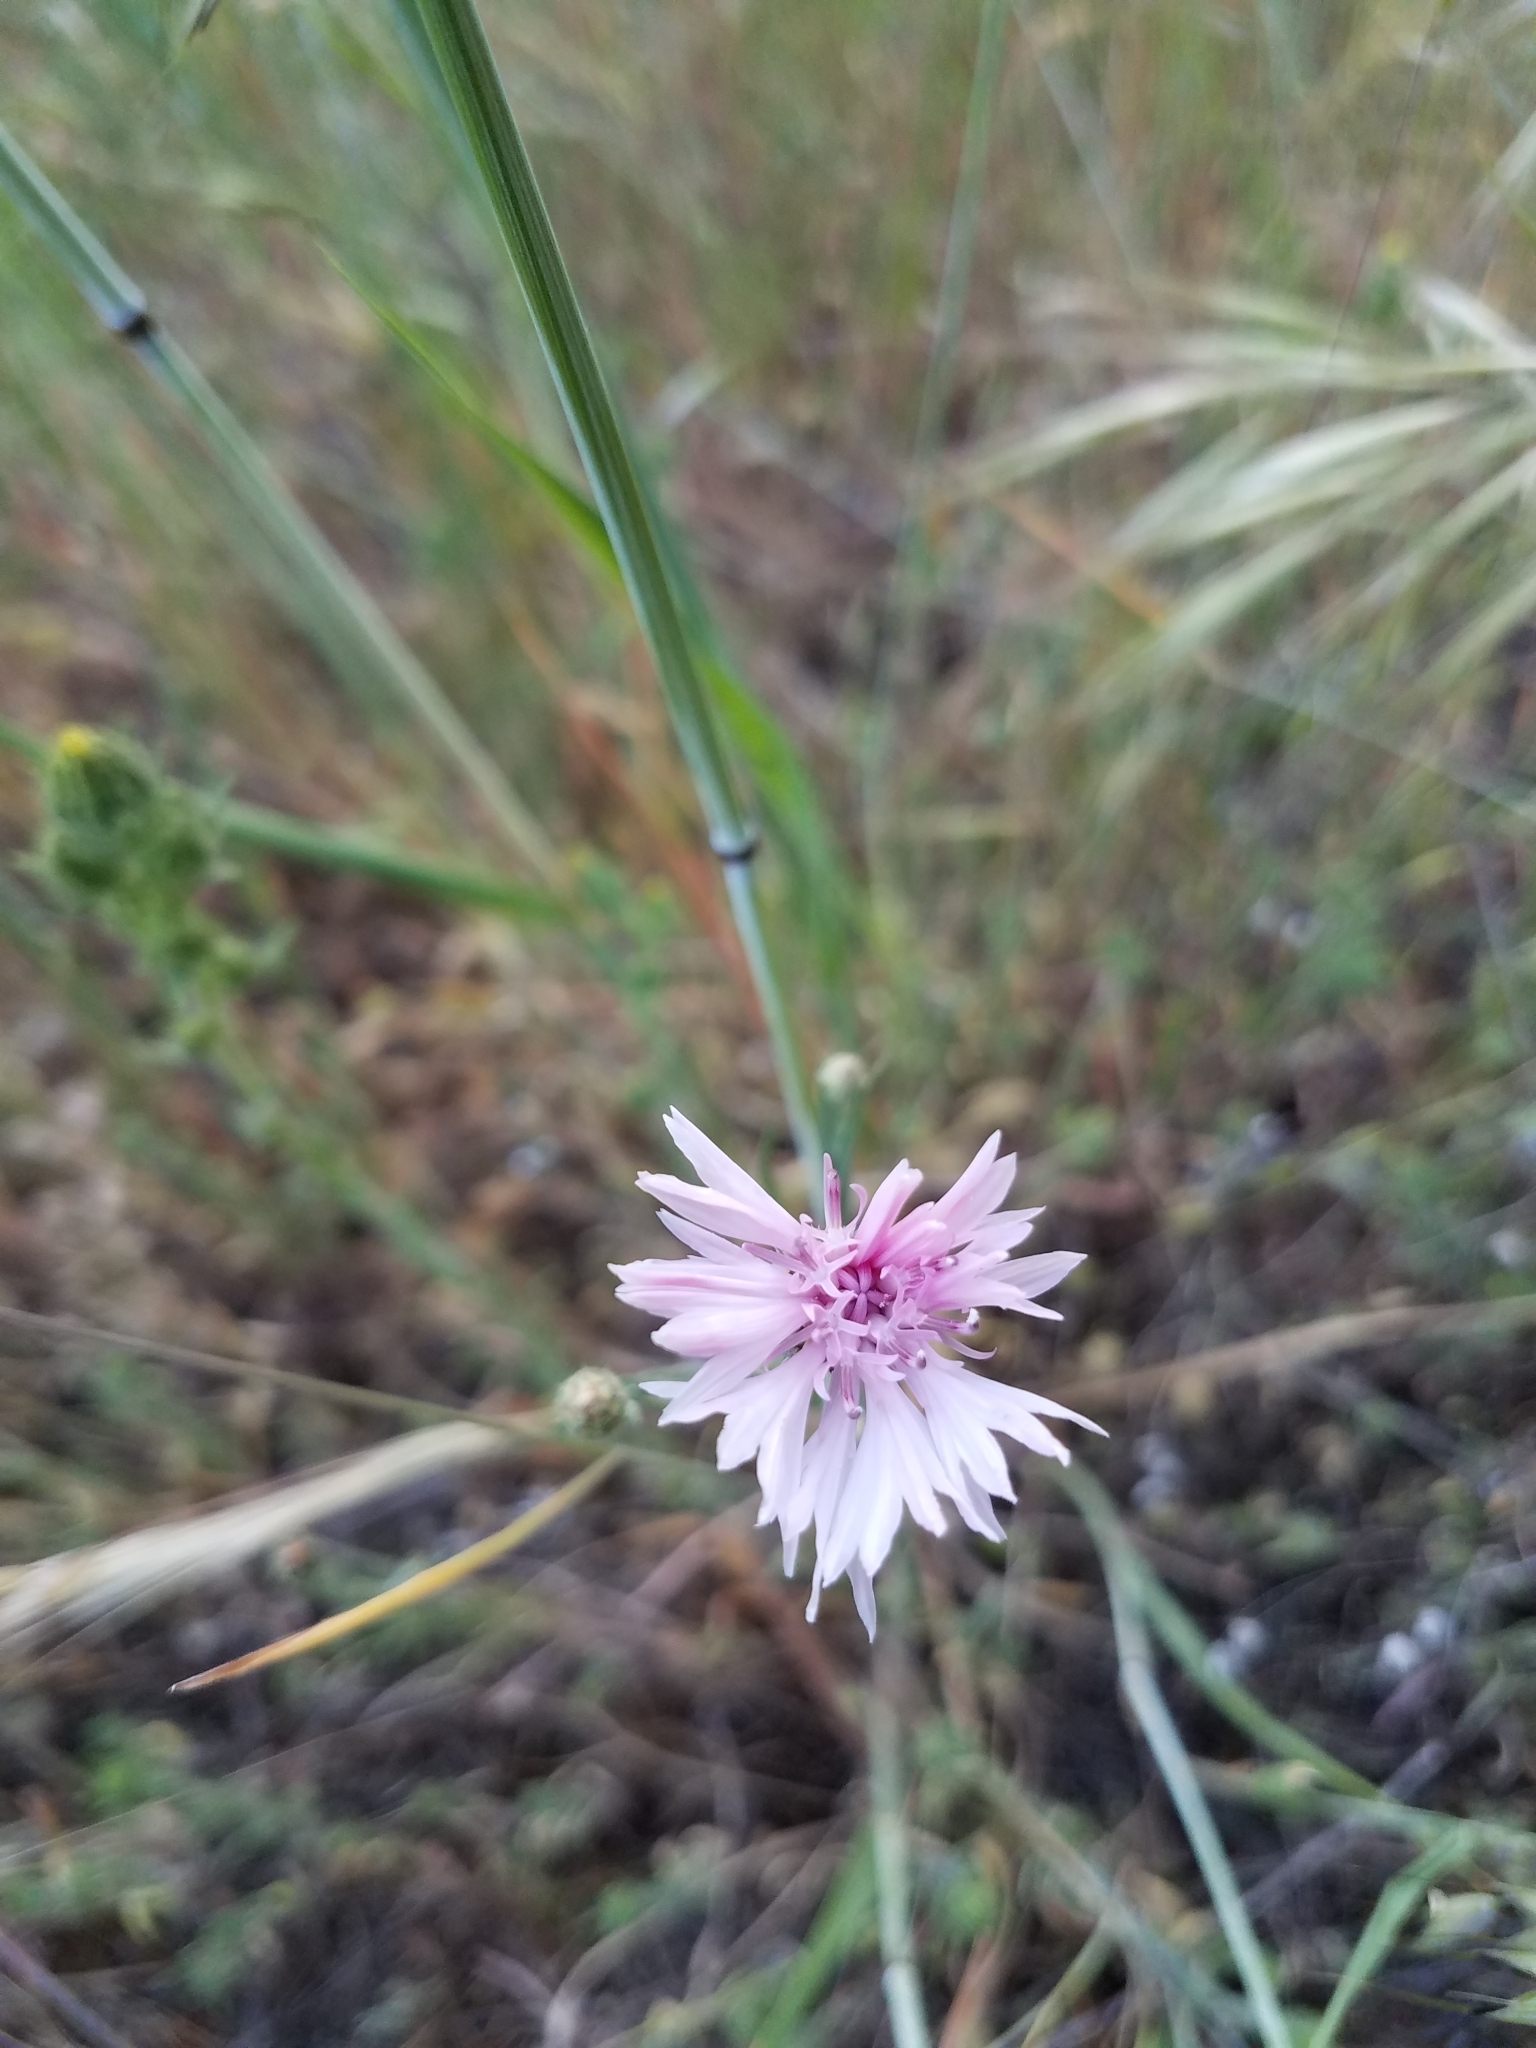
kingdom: Plantae
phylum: Tracheophyta
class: Magnoliopsida
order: Asterales
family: Asteraceae
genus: Centaurea
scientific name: Centaurea cyanus
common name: Cornflower
